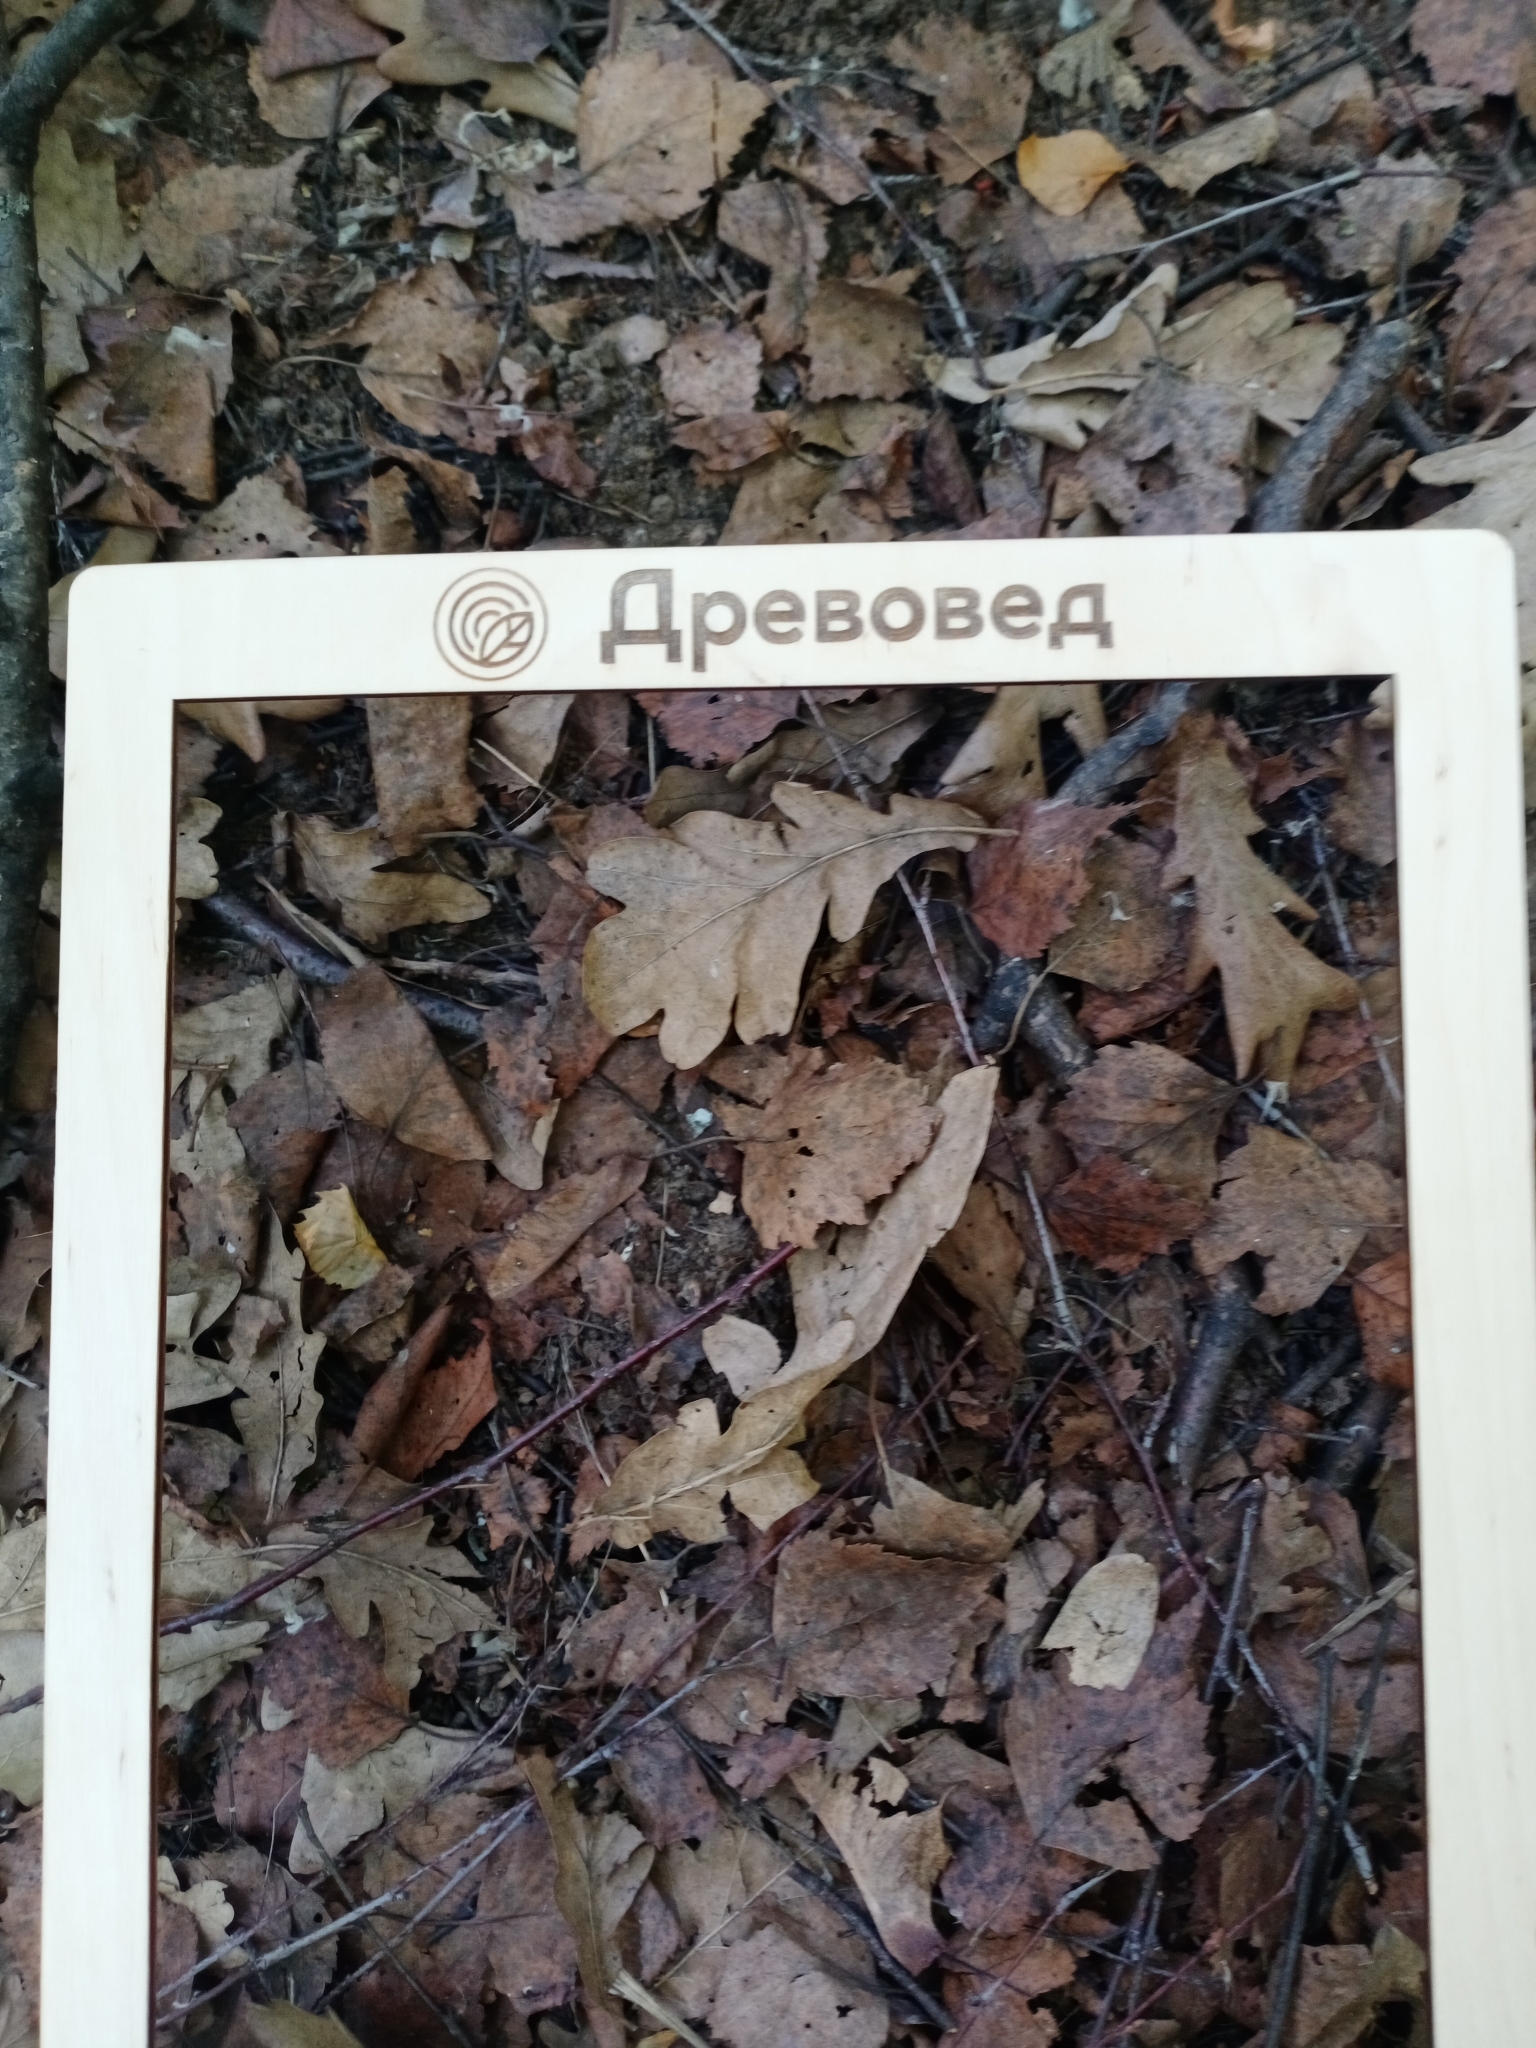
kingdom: Plantae
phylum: Tracheophyta
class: Magnoliopsida
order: Fagales
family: Fagaceae
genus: Quercus
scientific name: Quercus robur
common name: Pedunculate oak
